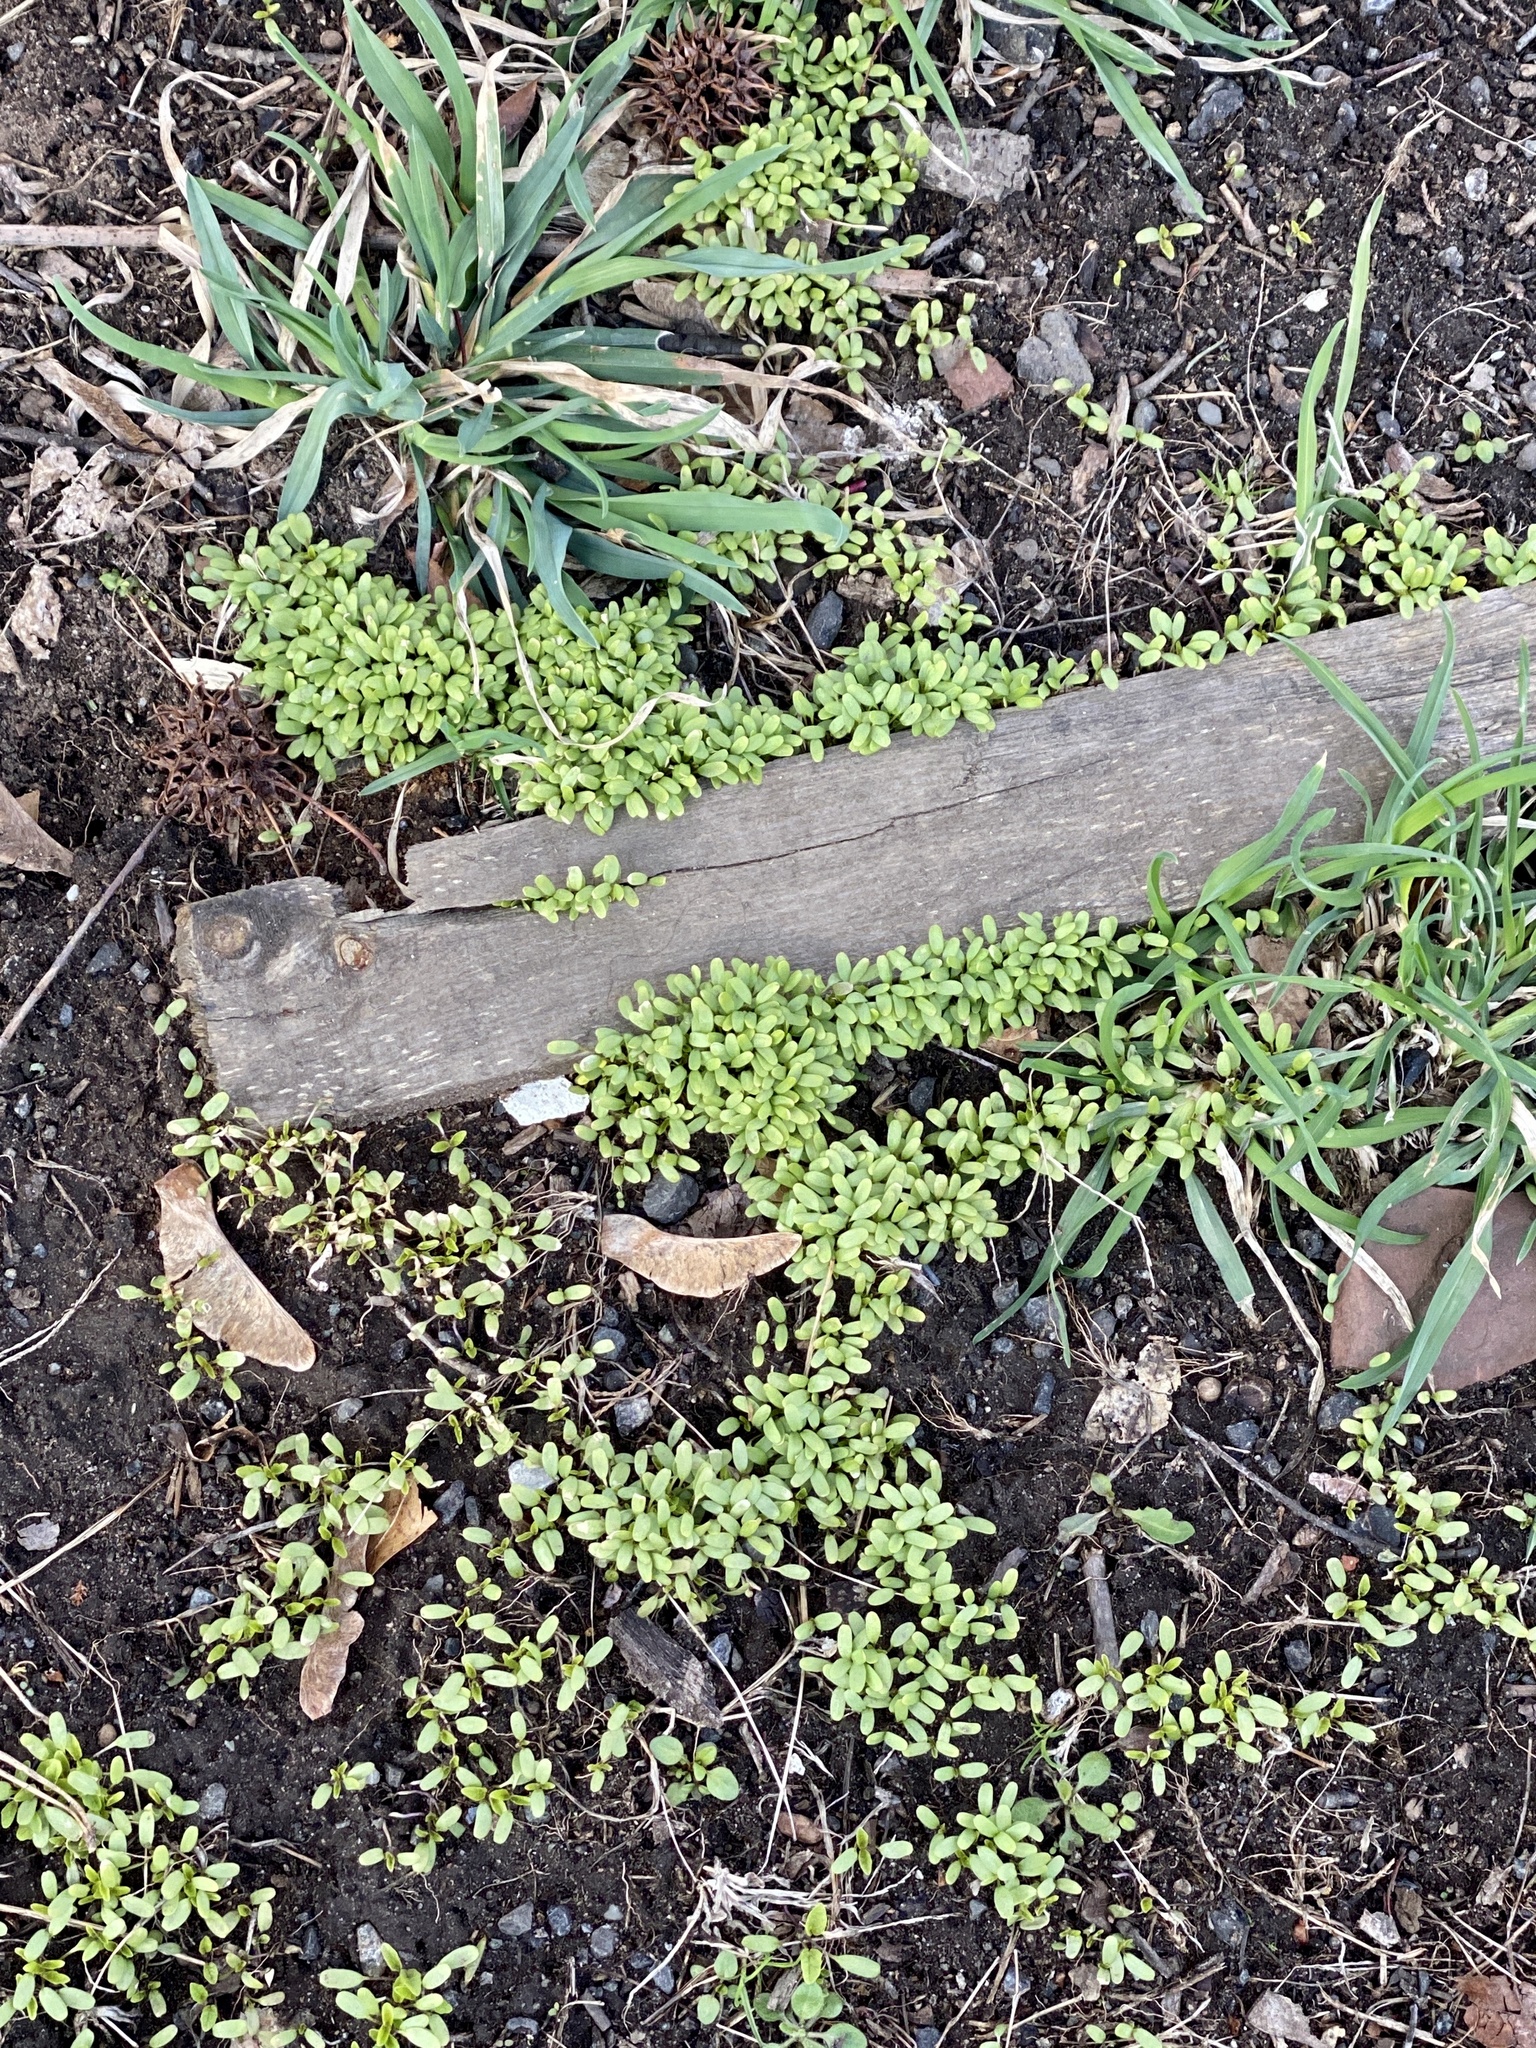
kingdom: Plantae
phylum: Tracheophyta
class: Magnoliopsida
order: Brassicales
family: Brassicaceae
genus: Alliaria
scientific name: Alliaria petiolata
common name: Garlic mustard
